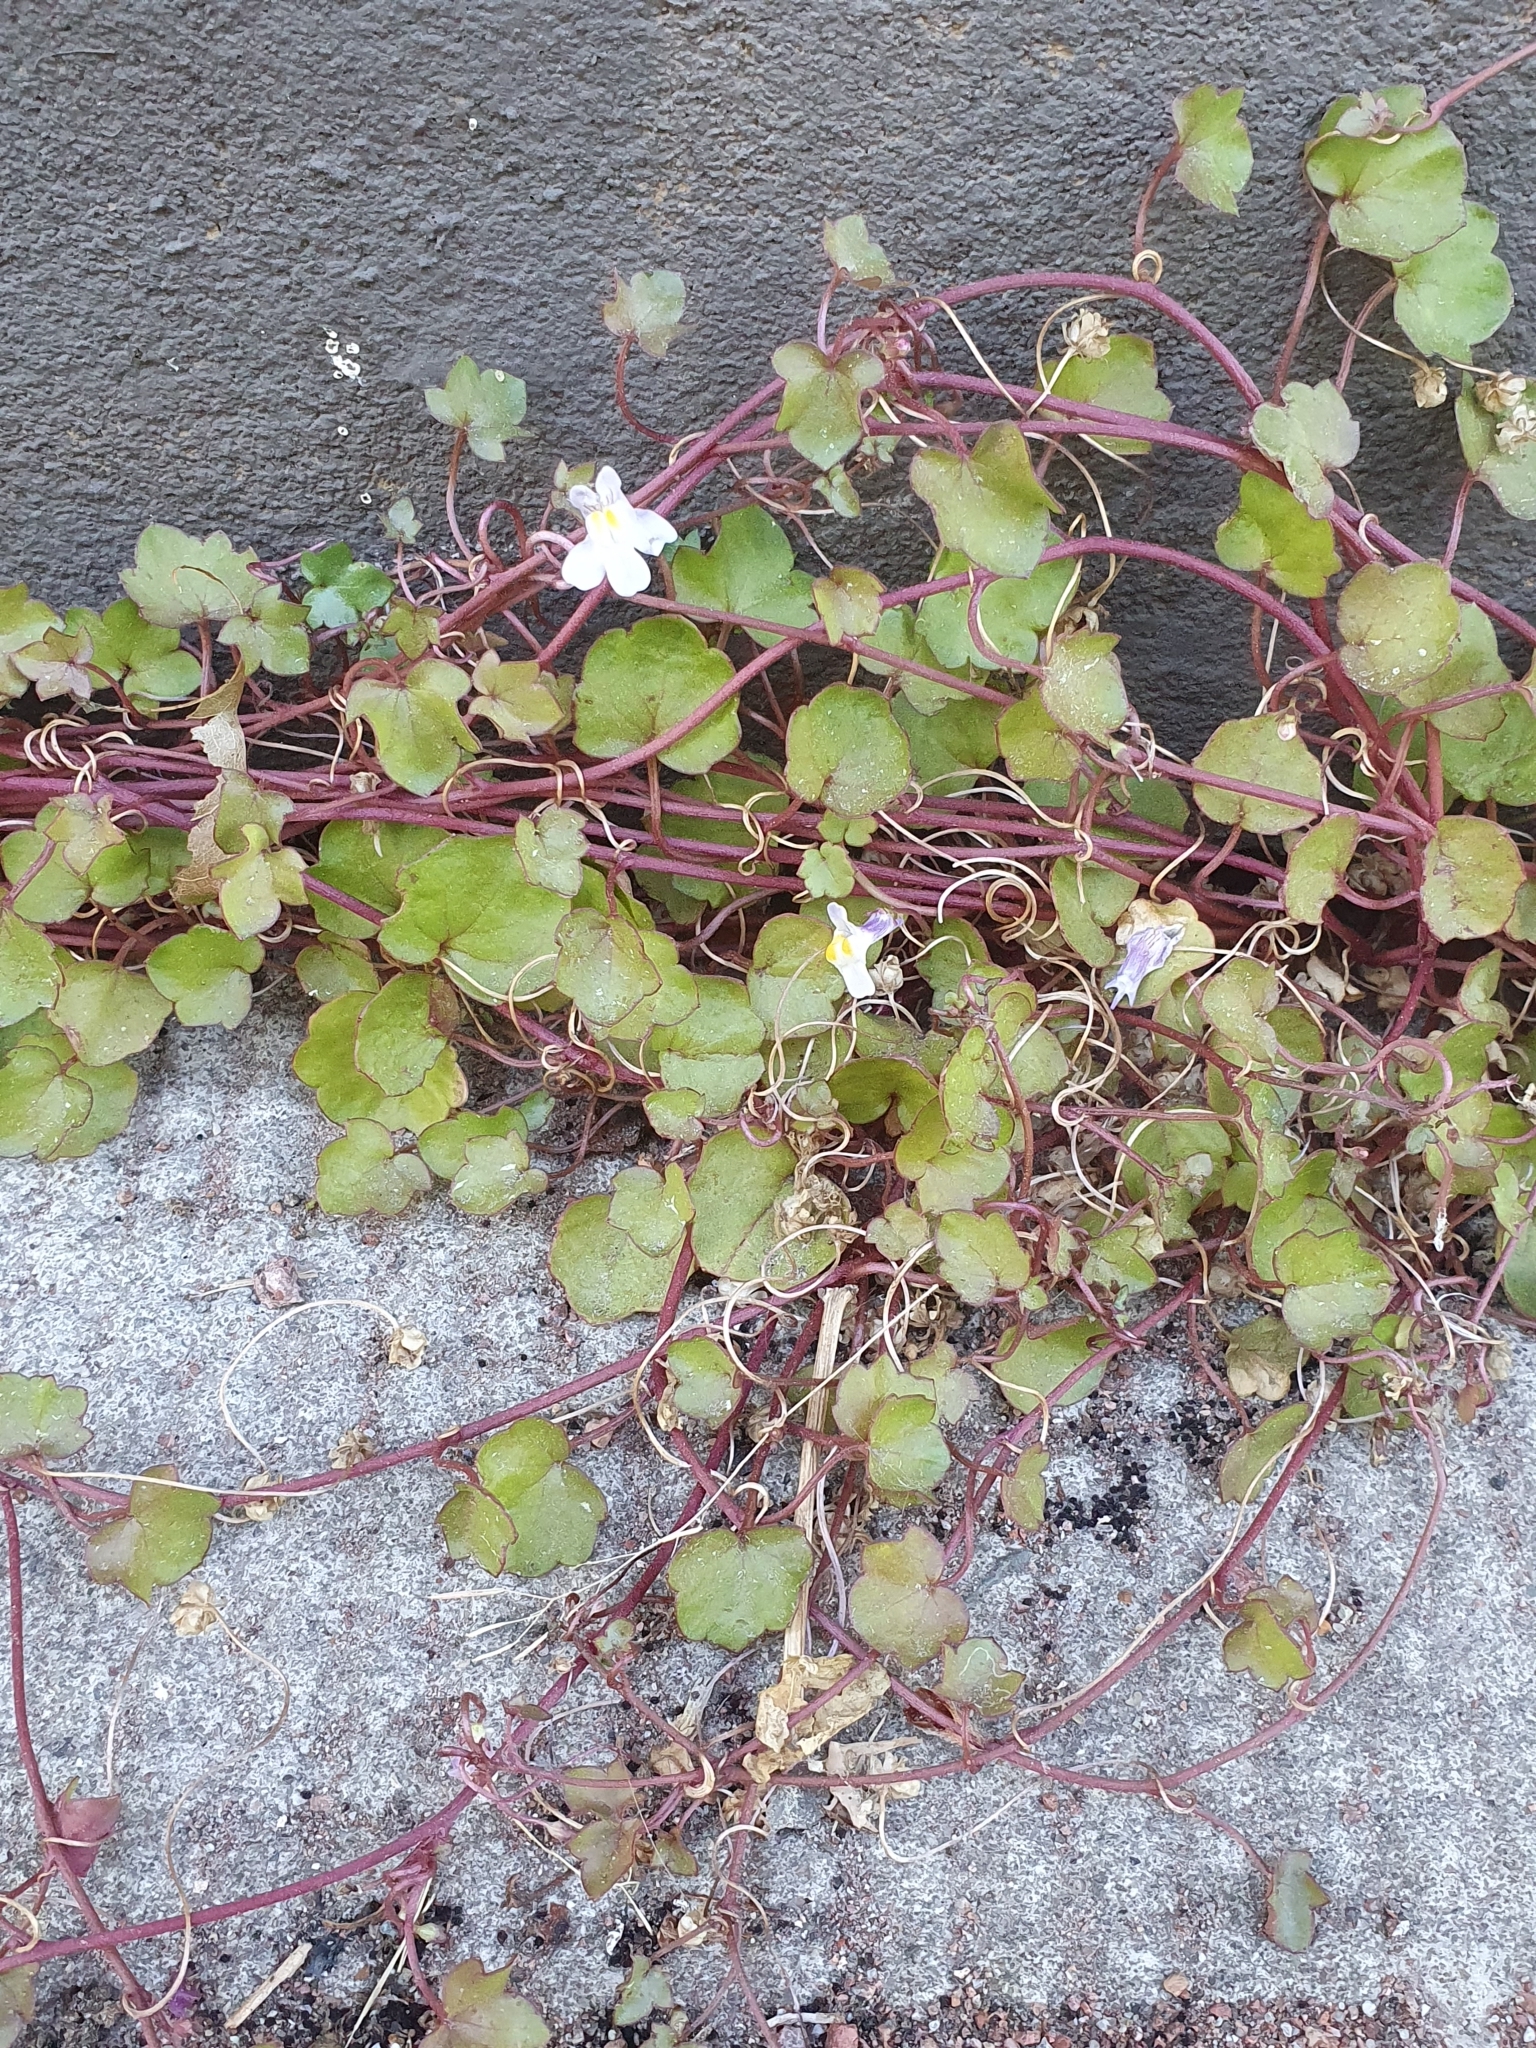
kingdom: Plantae
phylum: Tracheophyta
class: Magnoliopsida
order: Lamiales
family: Plantaginaceae
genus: Cymbalaria
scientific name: Cymbalaria muralis
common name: Ivy-leaved toadflax
